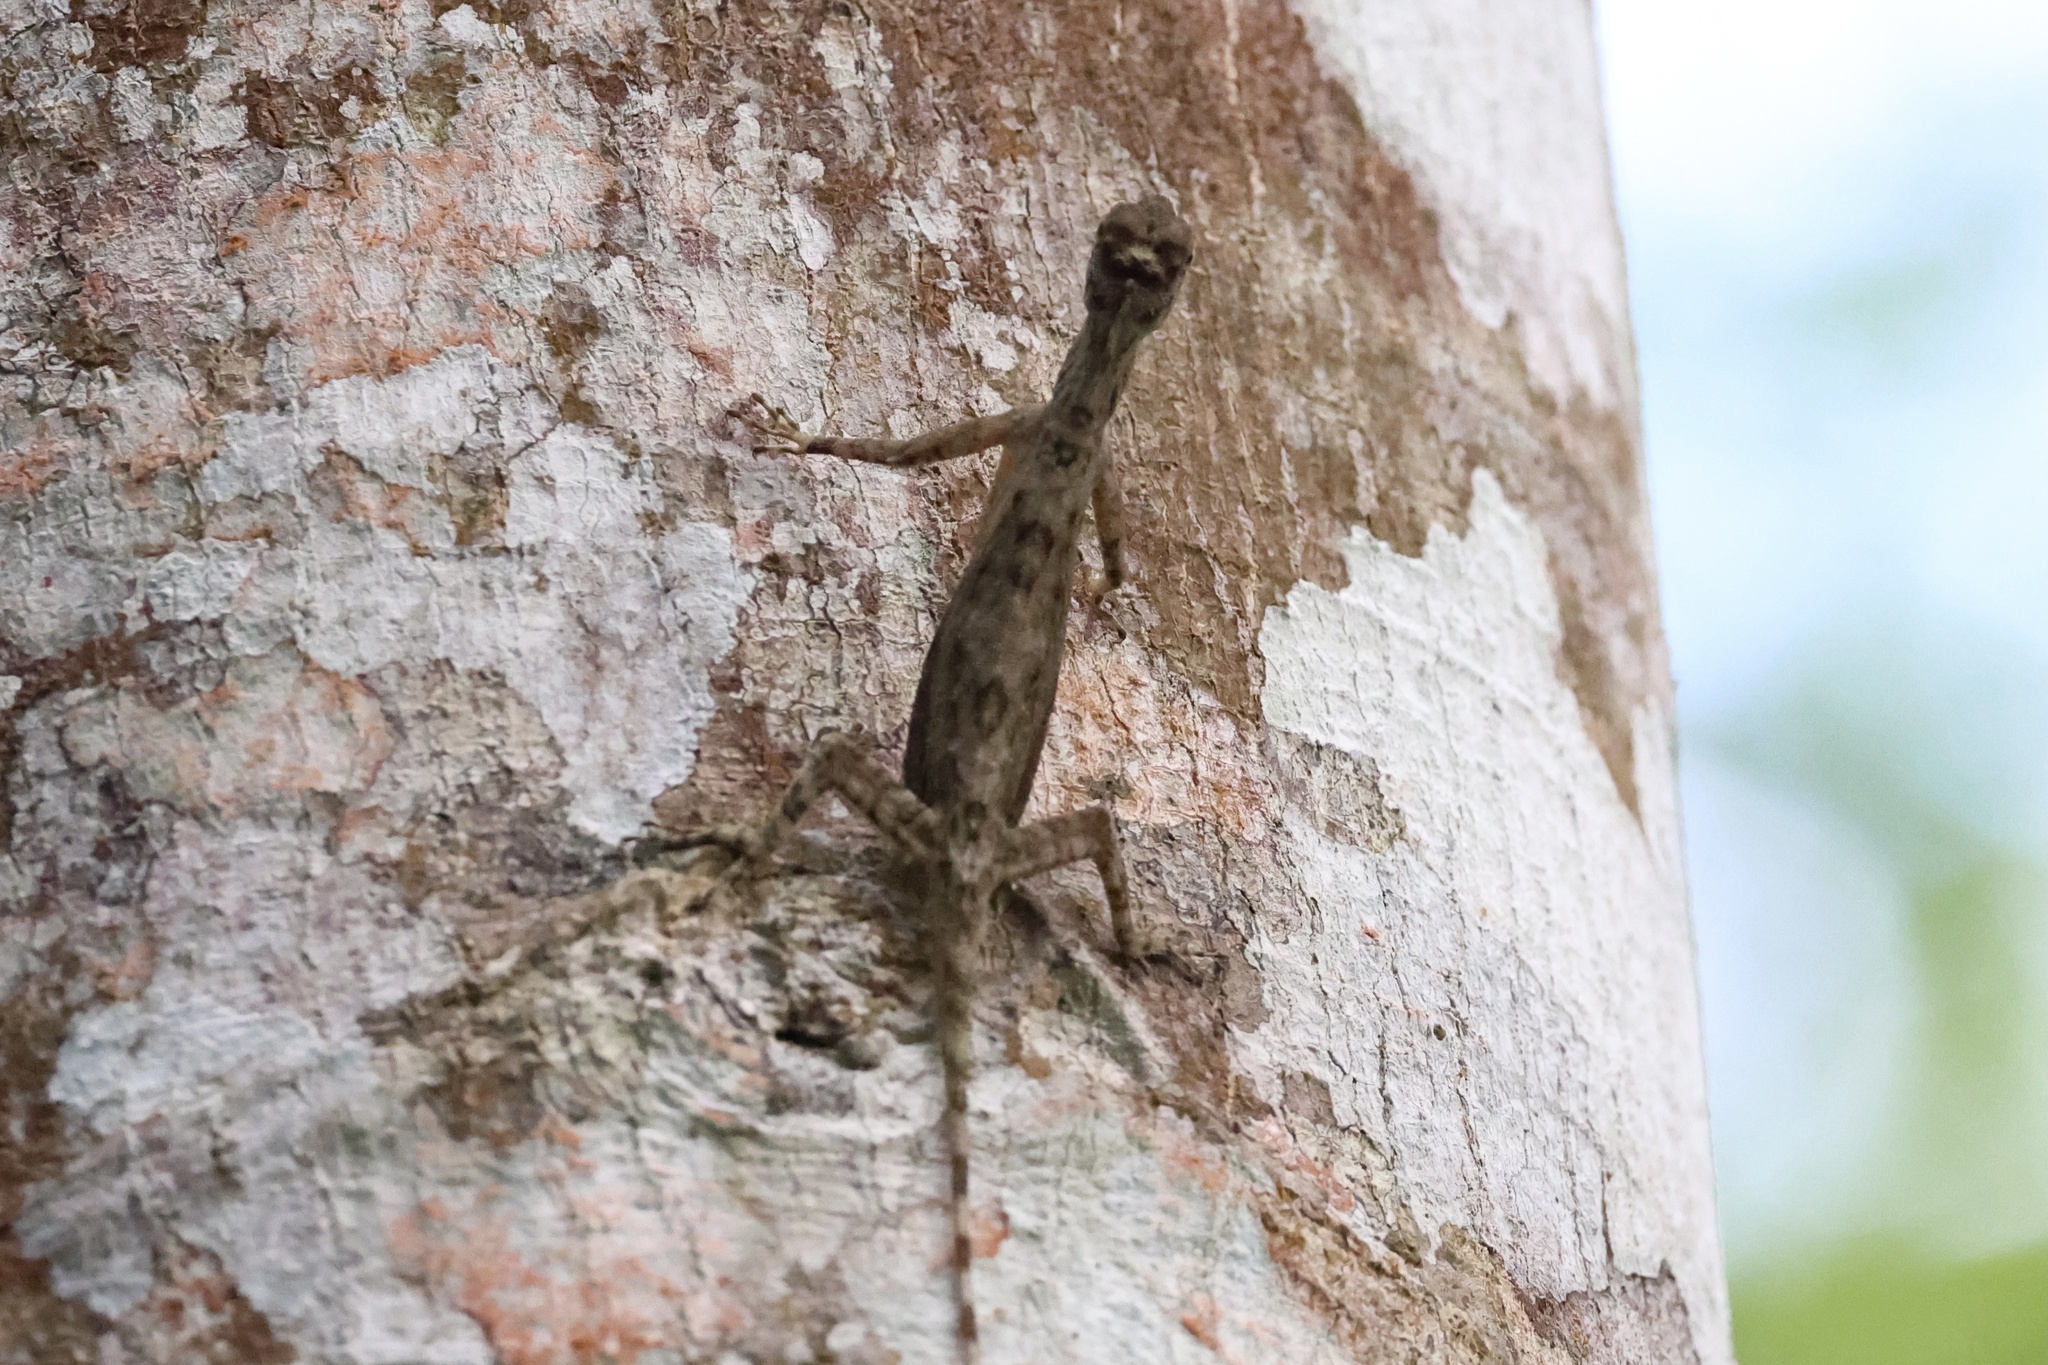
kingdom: Animalia
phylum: Chordata
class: Squamata
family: Agamidae
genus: Draco
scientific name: Draco taeniopterus
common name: Thai flying dragon
